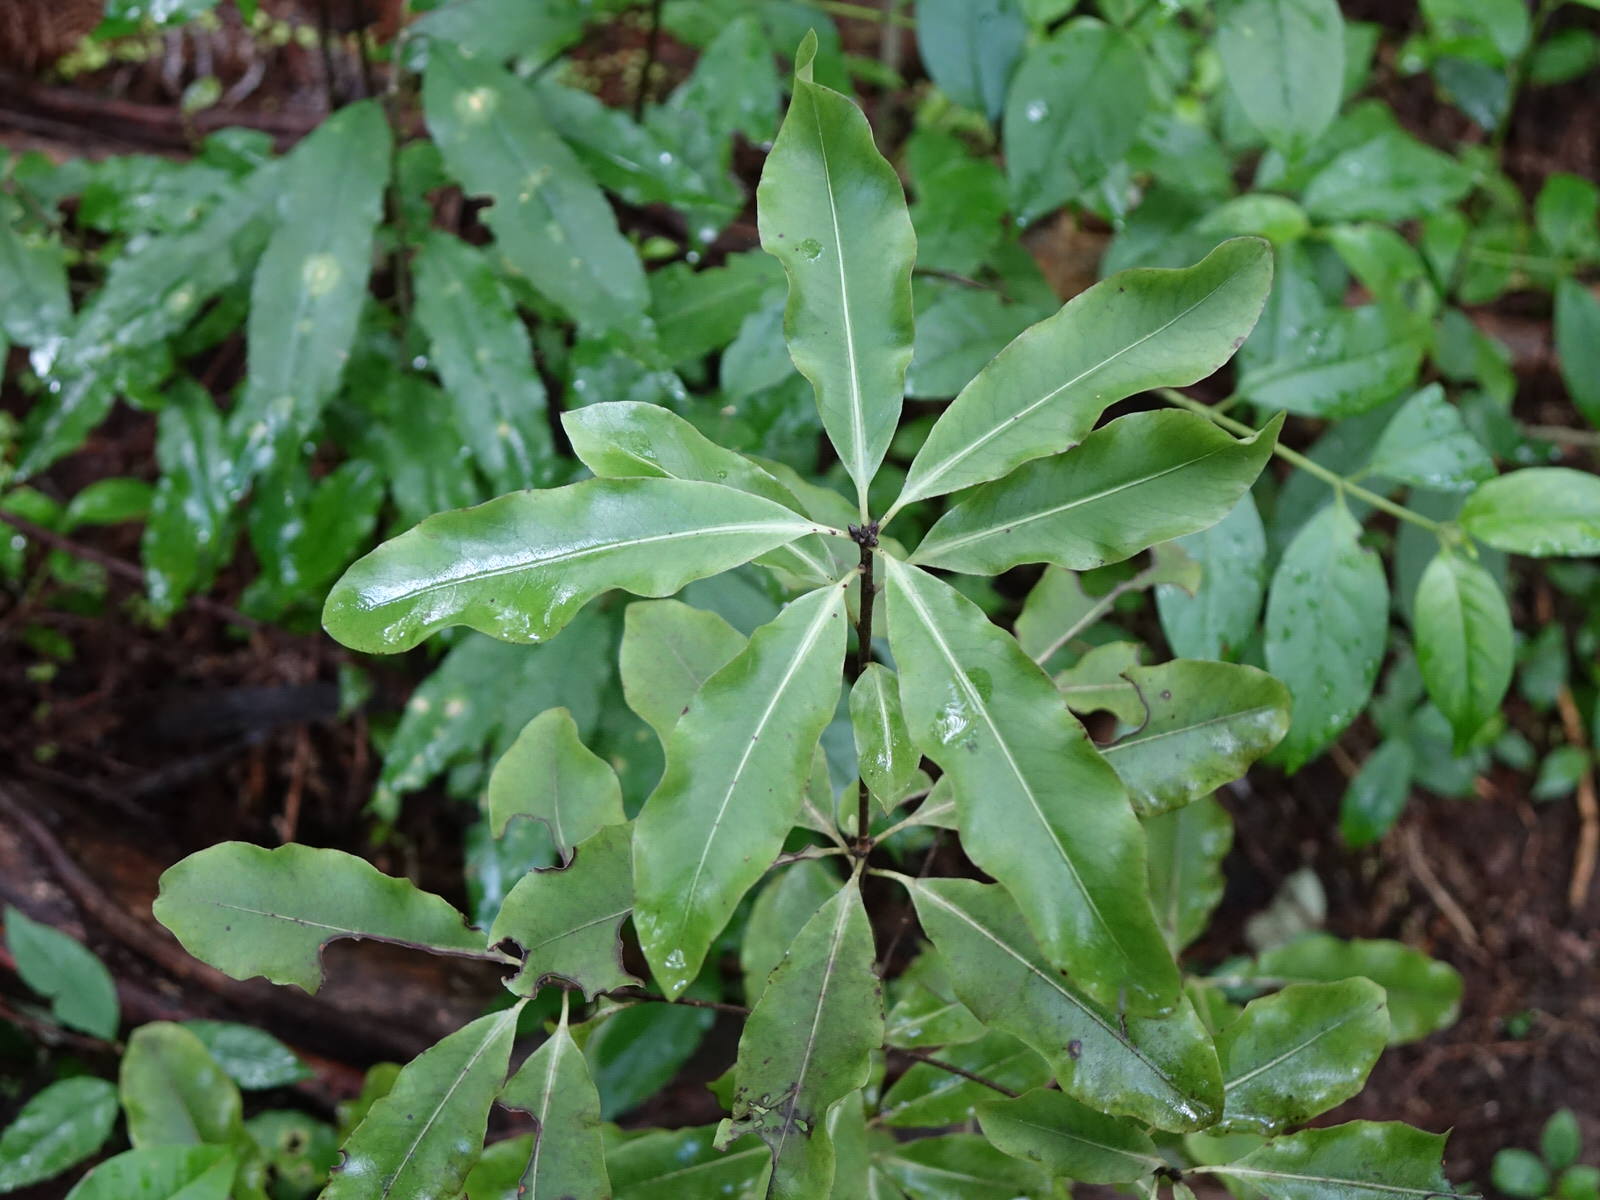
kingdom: Plantae
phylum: Tracheophyta
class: Magnoliopsida
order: Apiales
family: Pittosporaceae
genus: Pittosporum
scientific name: Pittosporum eugenioides
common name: Lemonwood
